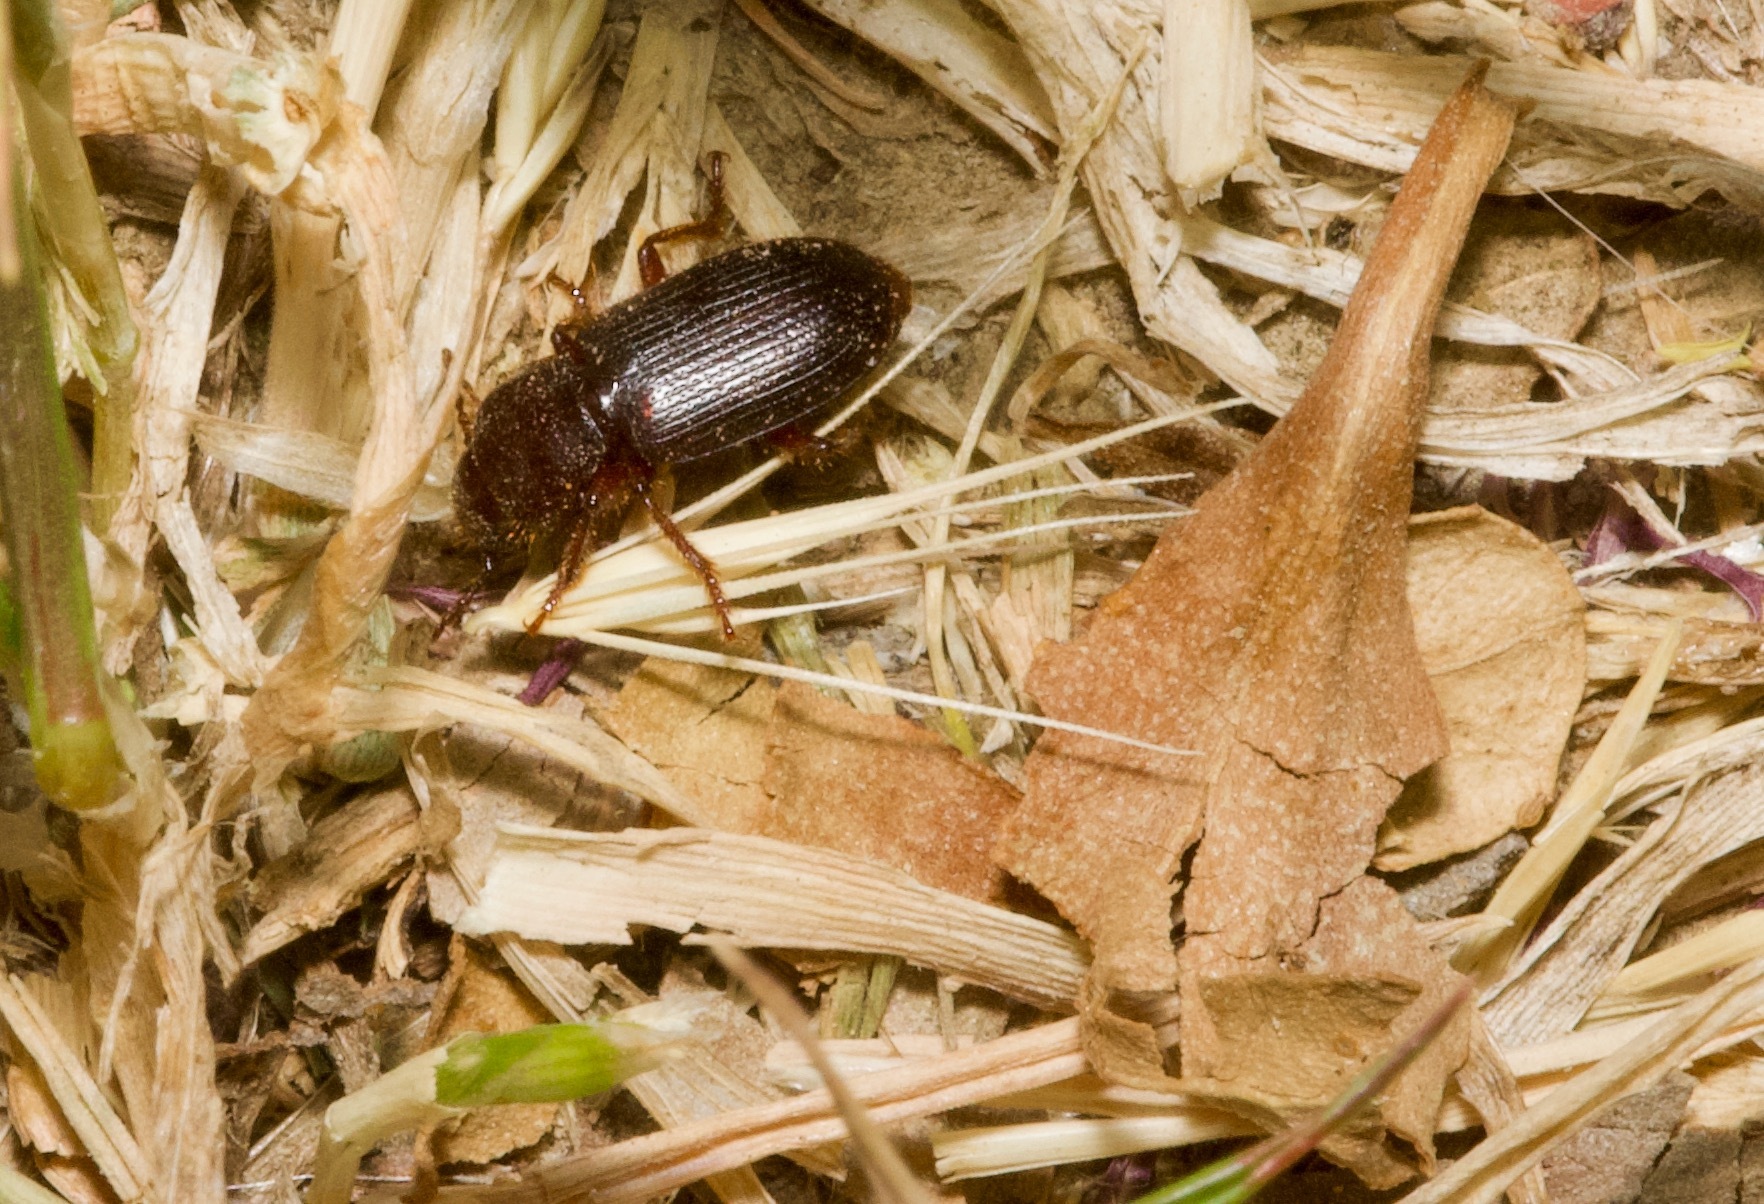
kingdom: Animalia
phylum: Arthropoda
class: Insecta
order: Coleoptera
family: Carabidae
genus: Dicheirus
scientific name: Dicheirus piceus
